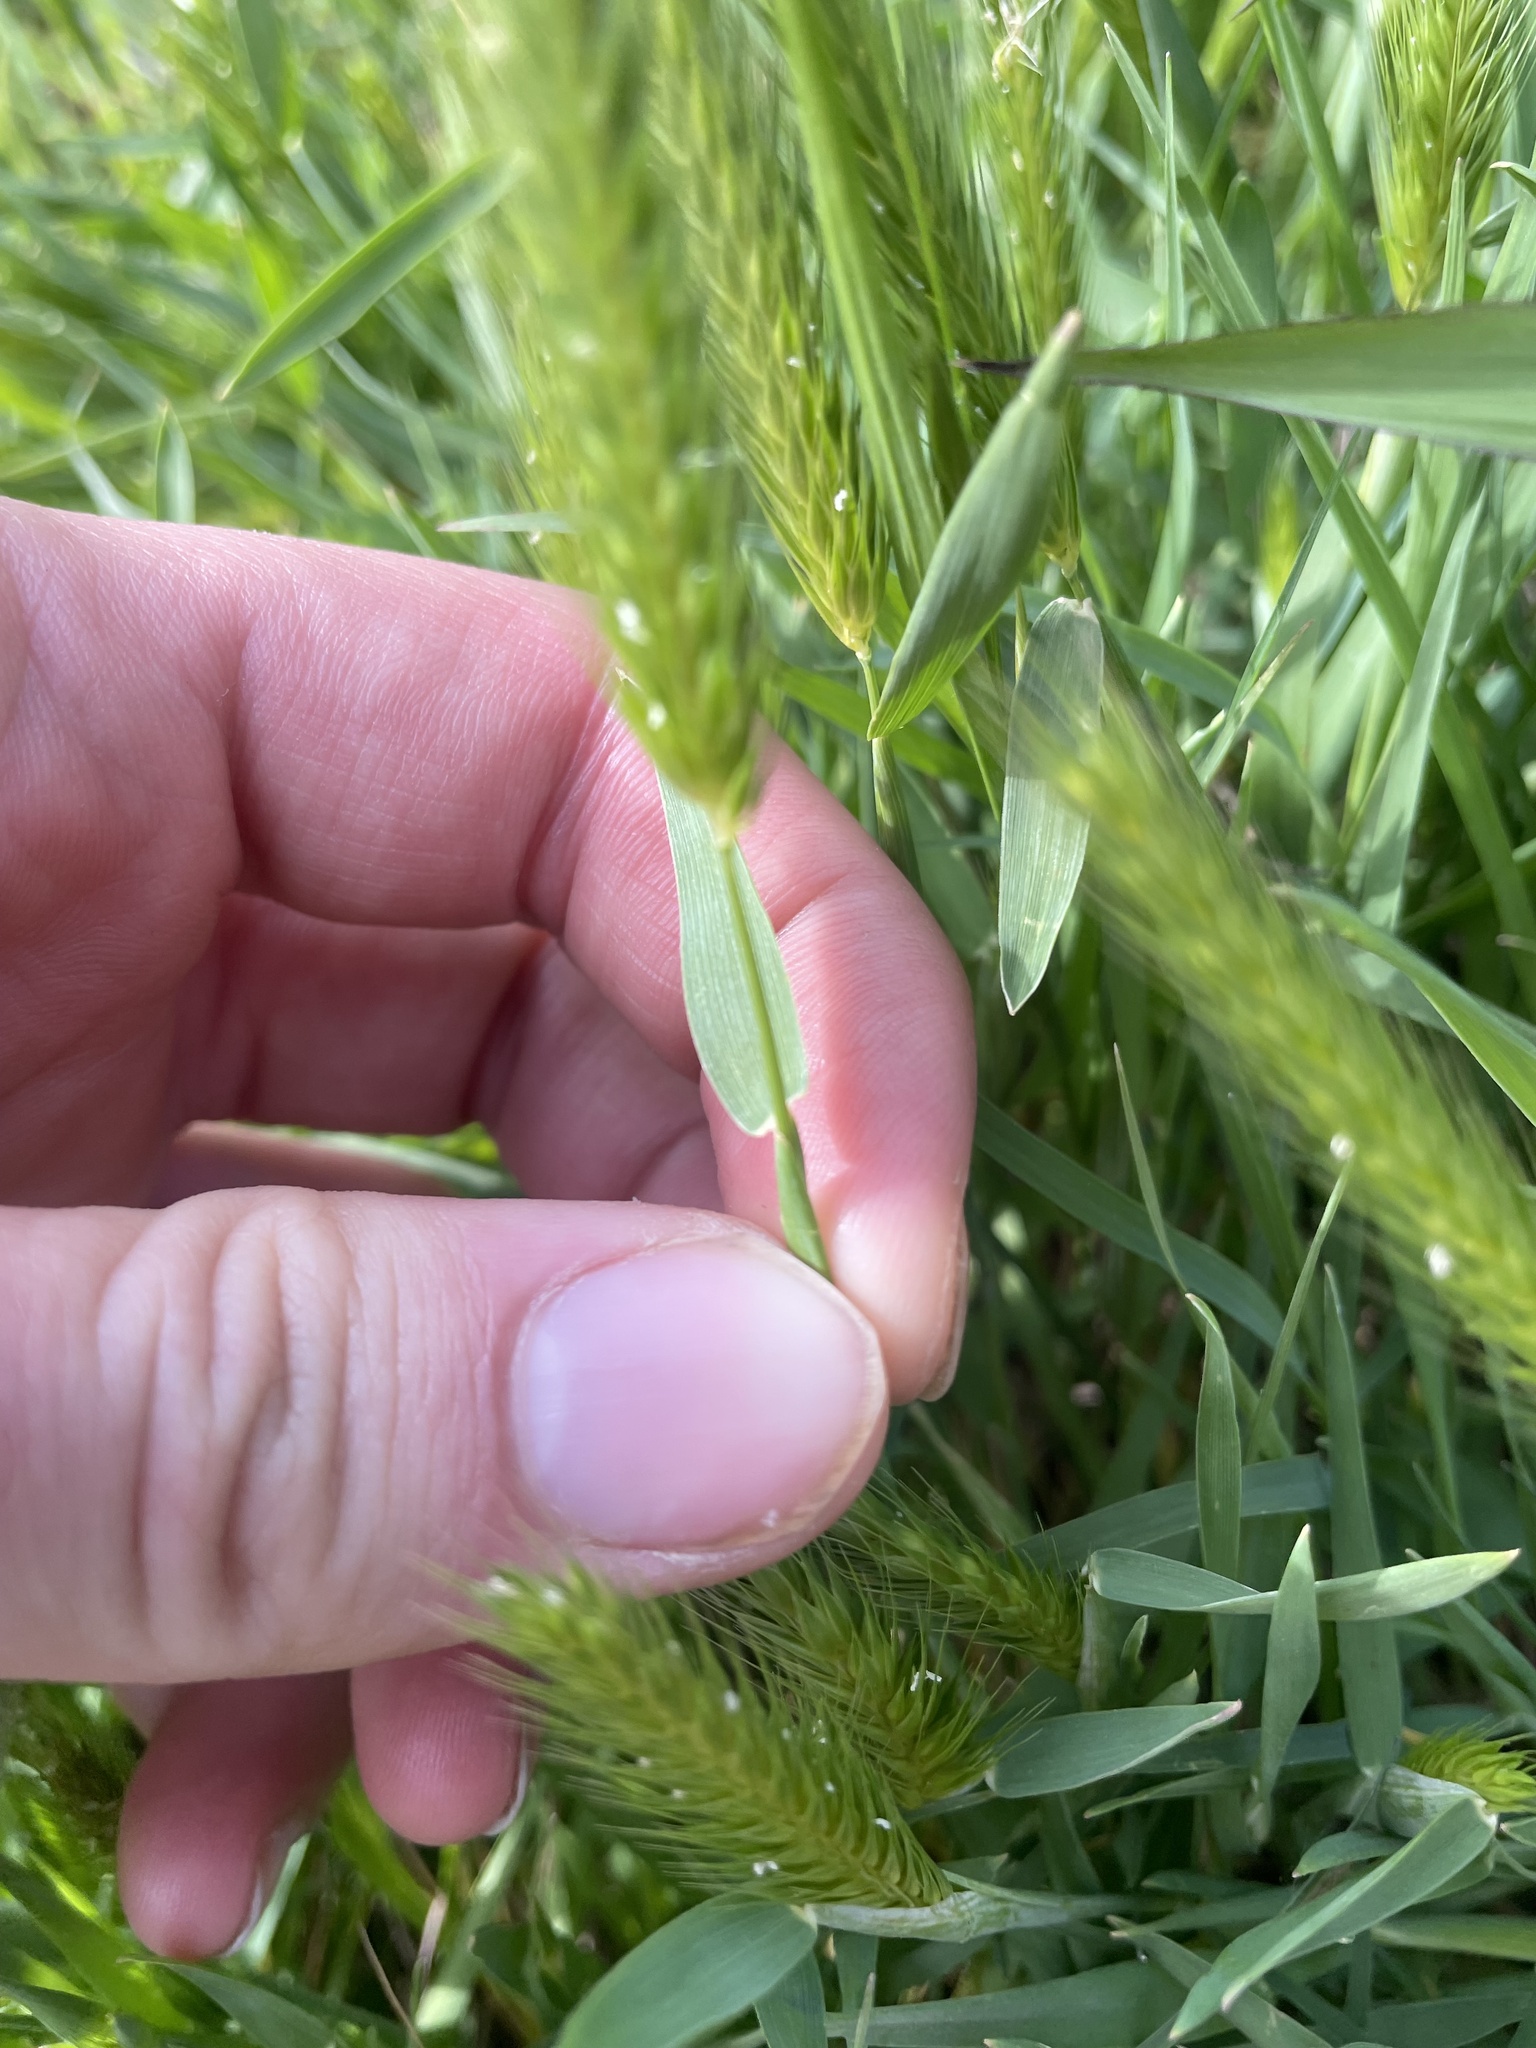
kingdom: Plantae
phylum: Tracheophyta
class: Liliopsida
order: Poales
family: Poaceae
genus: Hordeum
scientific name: Hordeum pusillum
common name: Little barley
